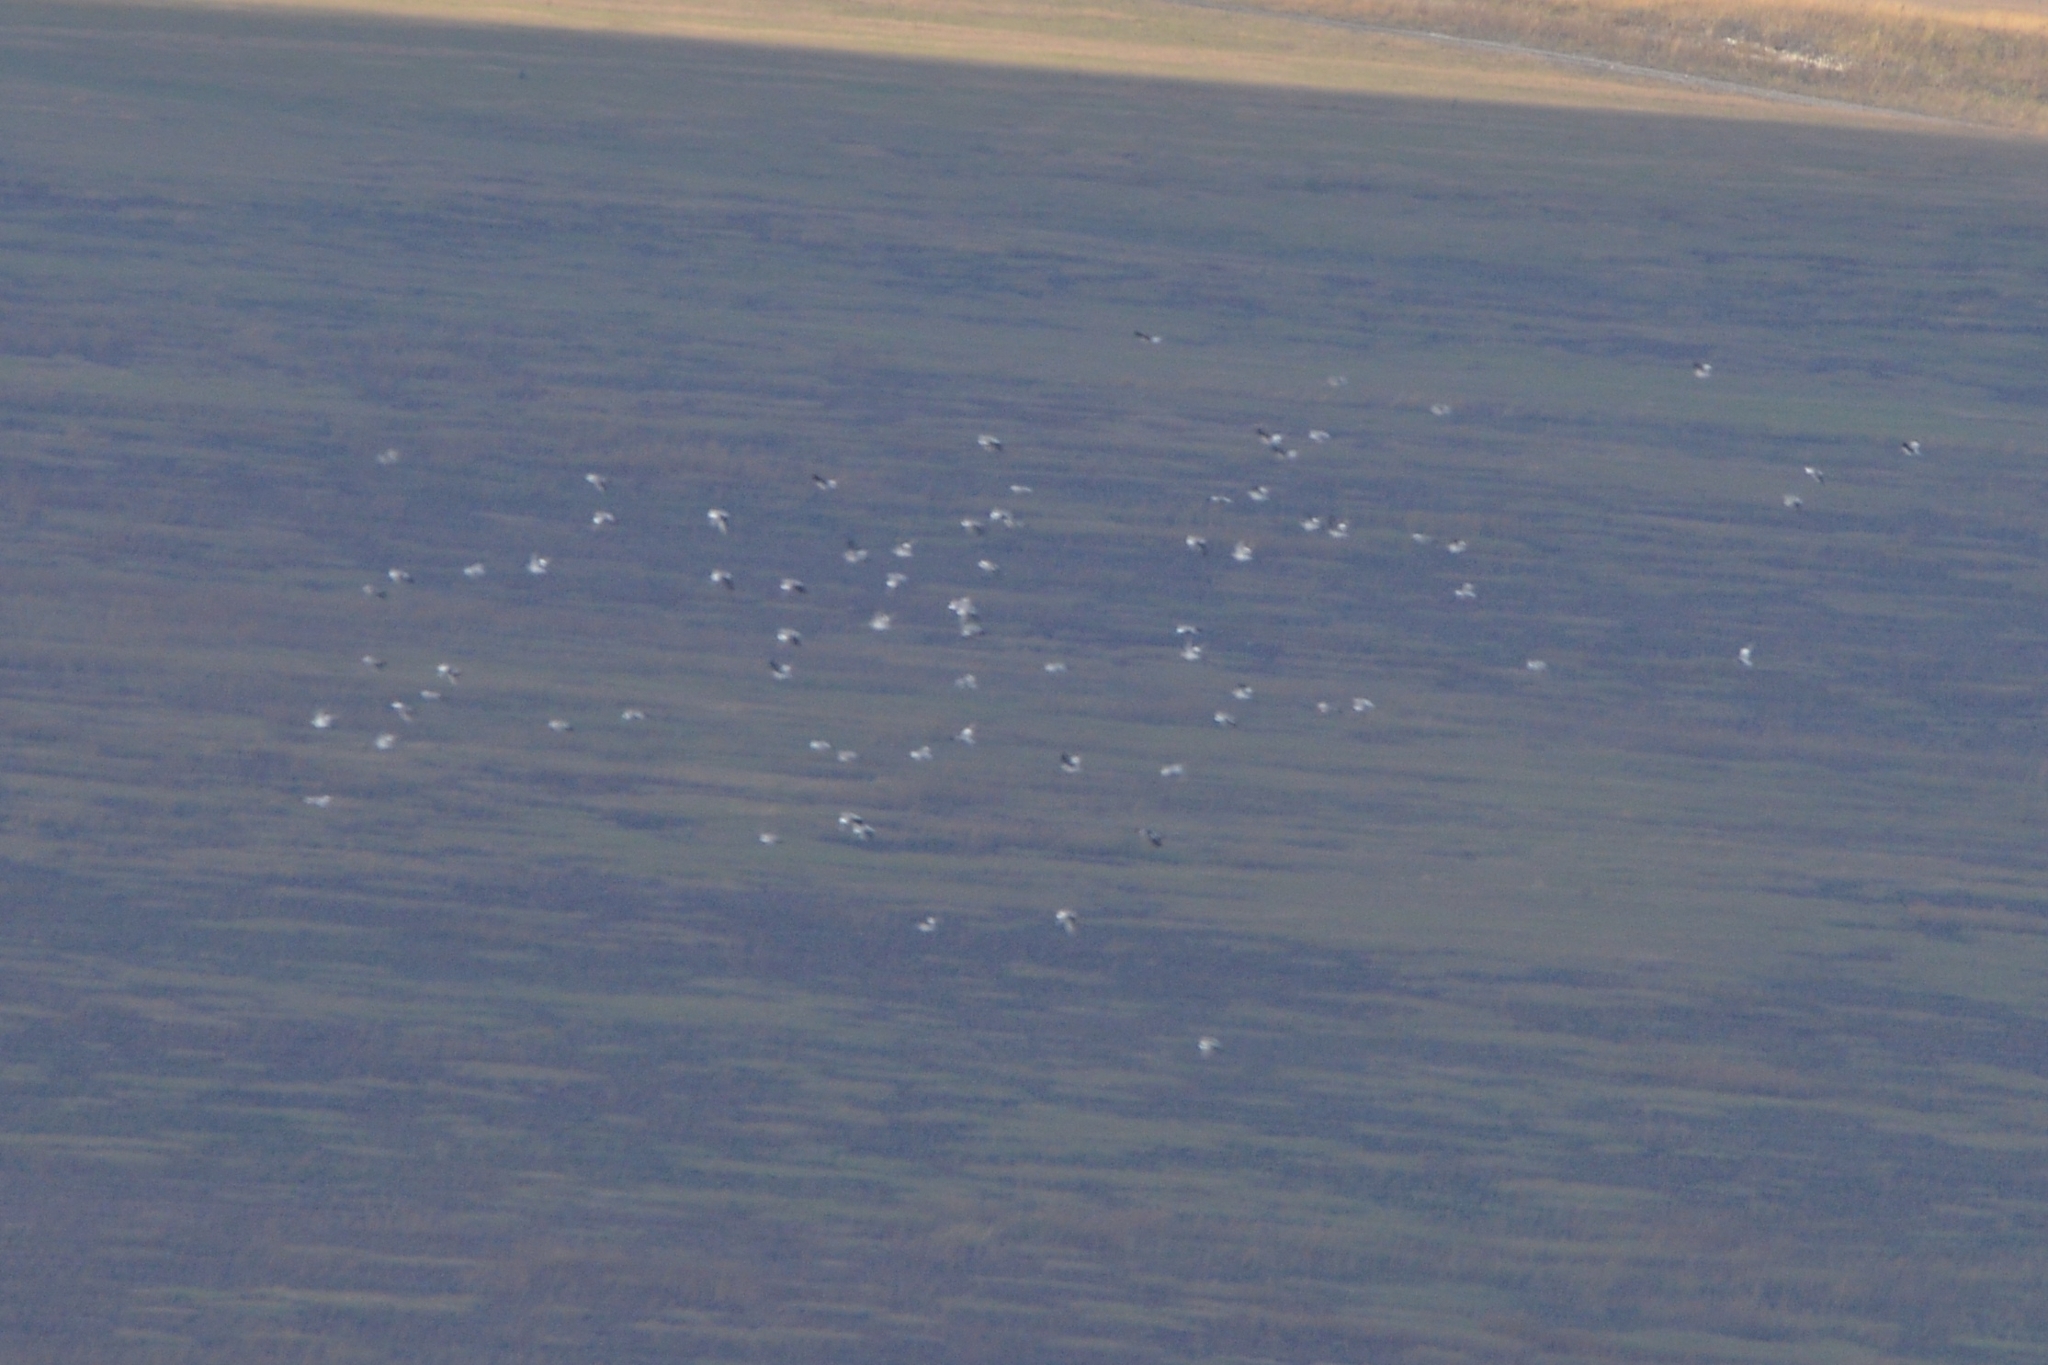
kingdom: Animalia
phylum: Chordata
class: Aves
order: Columbiformes
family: Columbidae
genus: Columba
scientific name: Columba palumbus
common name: Common wood pigeon
